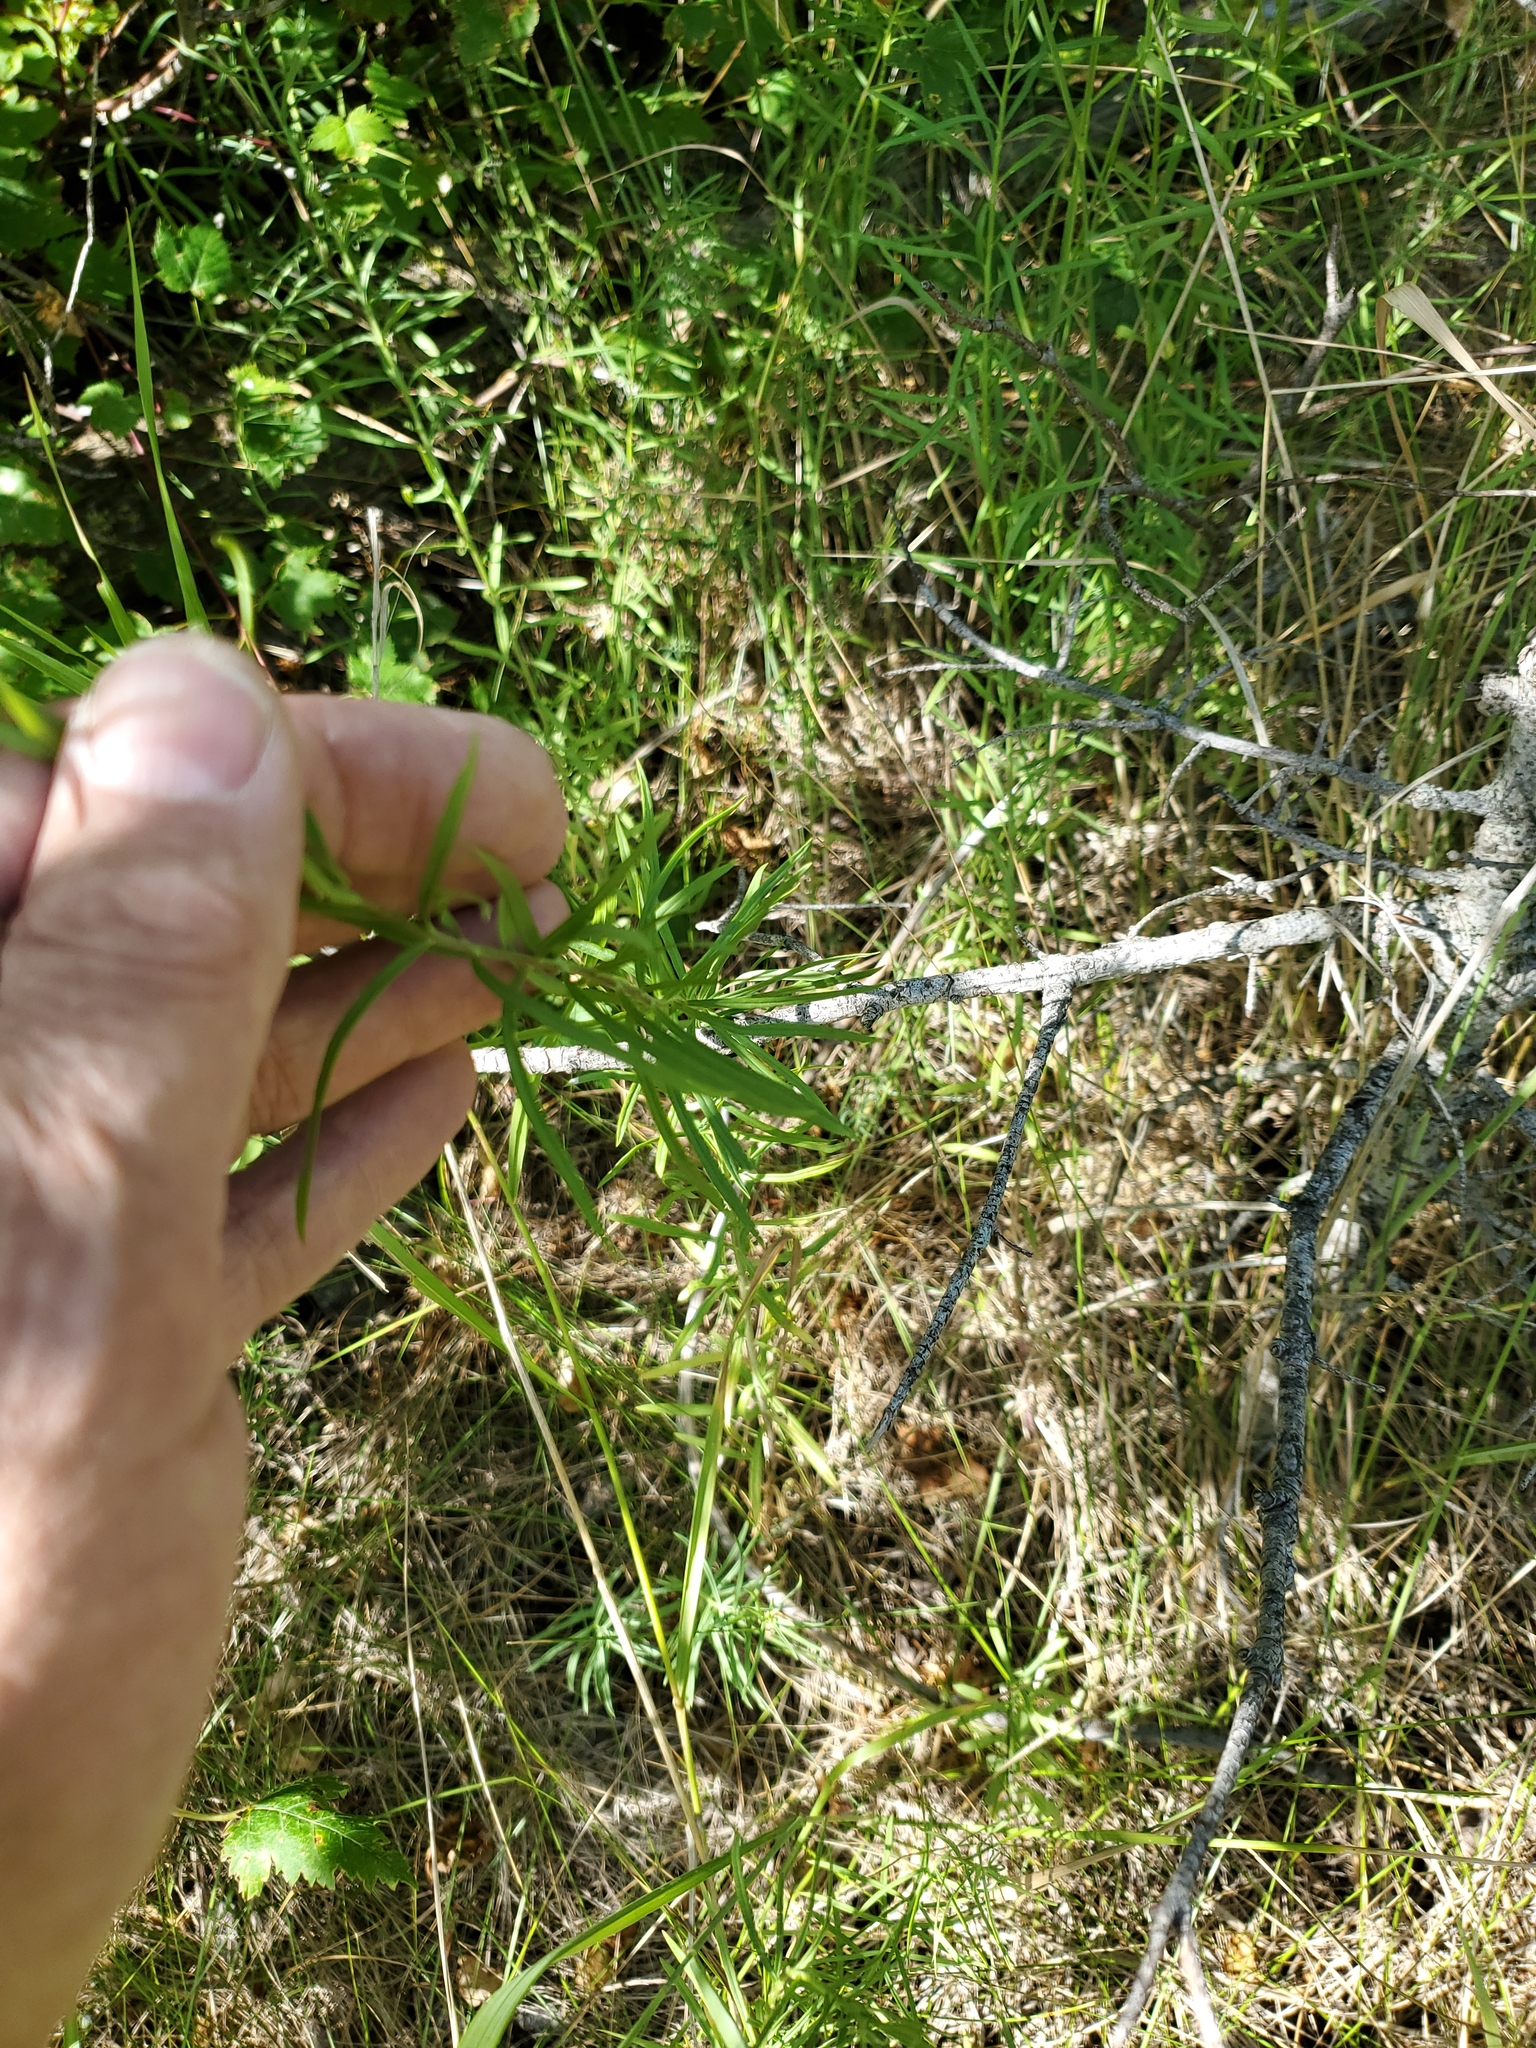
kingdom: Plantae
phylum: Tracheophyta
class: Magnoliopsida
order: Lamiales
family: Plantaginaceae
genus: Linaria
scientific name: Linaria vulgaris
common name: Butter and eggs
